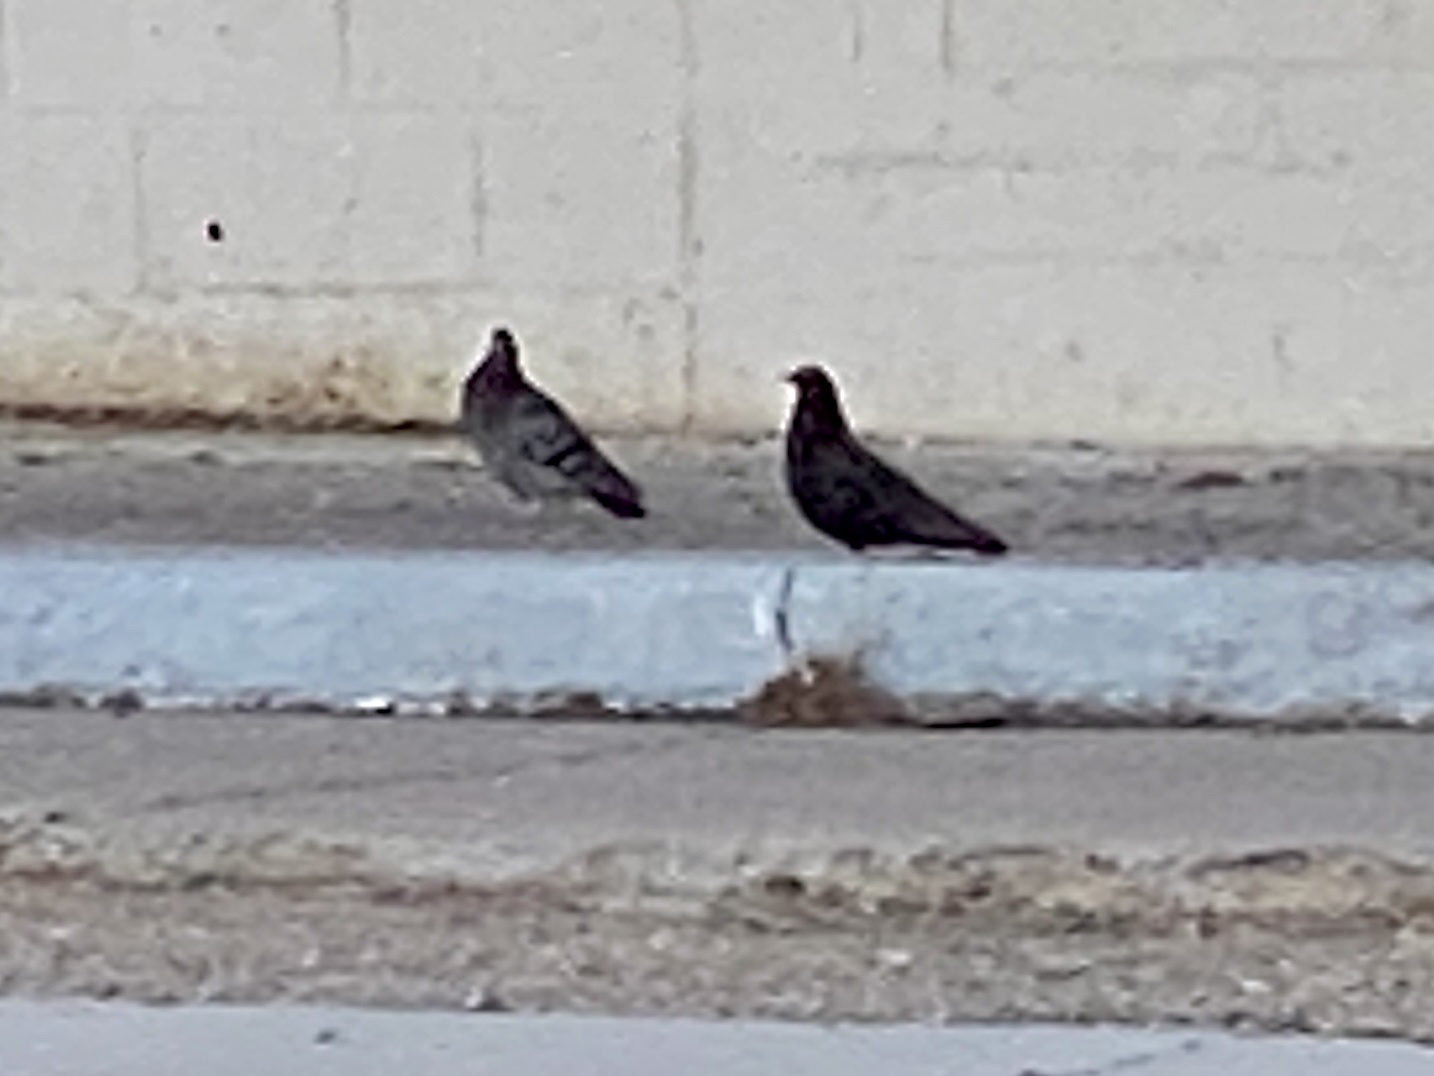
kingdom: Animalia
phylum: Chordata
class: Aves
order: Columbiformes
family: Columbidae
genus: Columba
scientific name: Columba livia
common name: Rock pigeon
